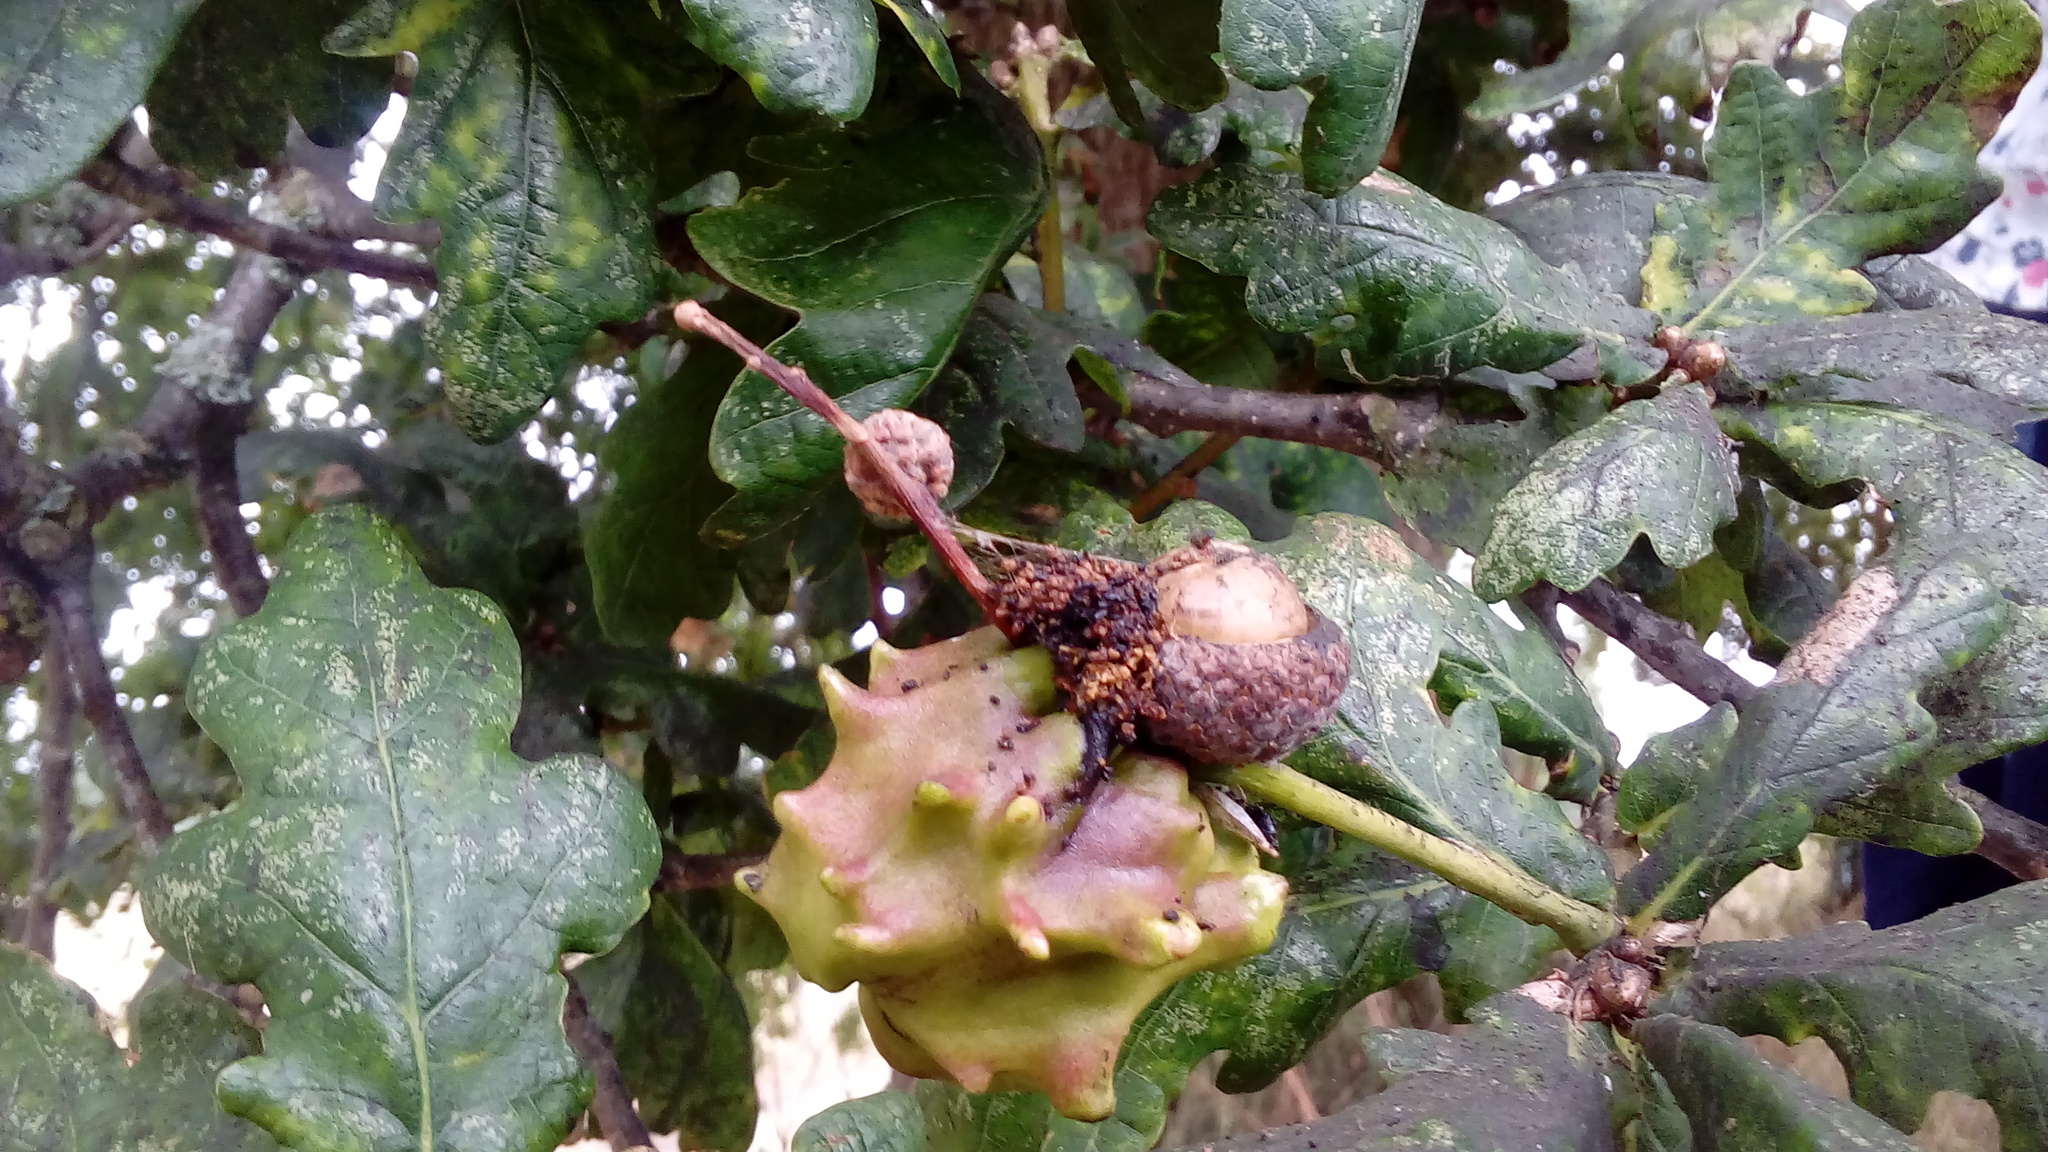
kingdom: Animalia
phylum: Arthropoda
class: Insecta
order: Hymenoptera
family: Cynipidae
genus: Andricus
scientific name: Andricus quercuscalicis
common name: Knopper gall
